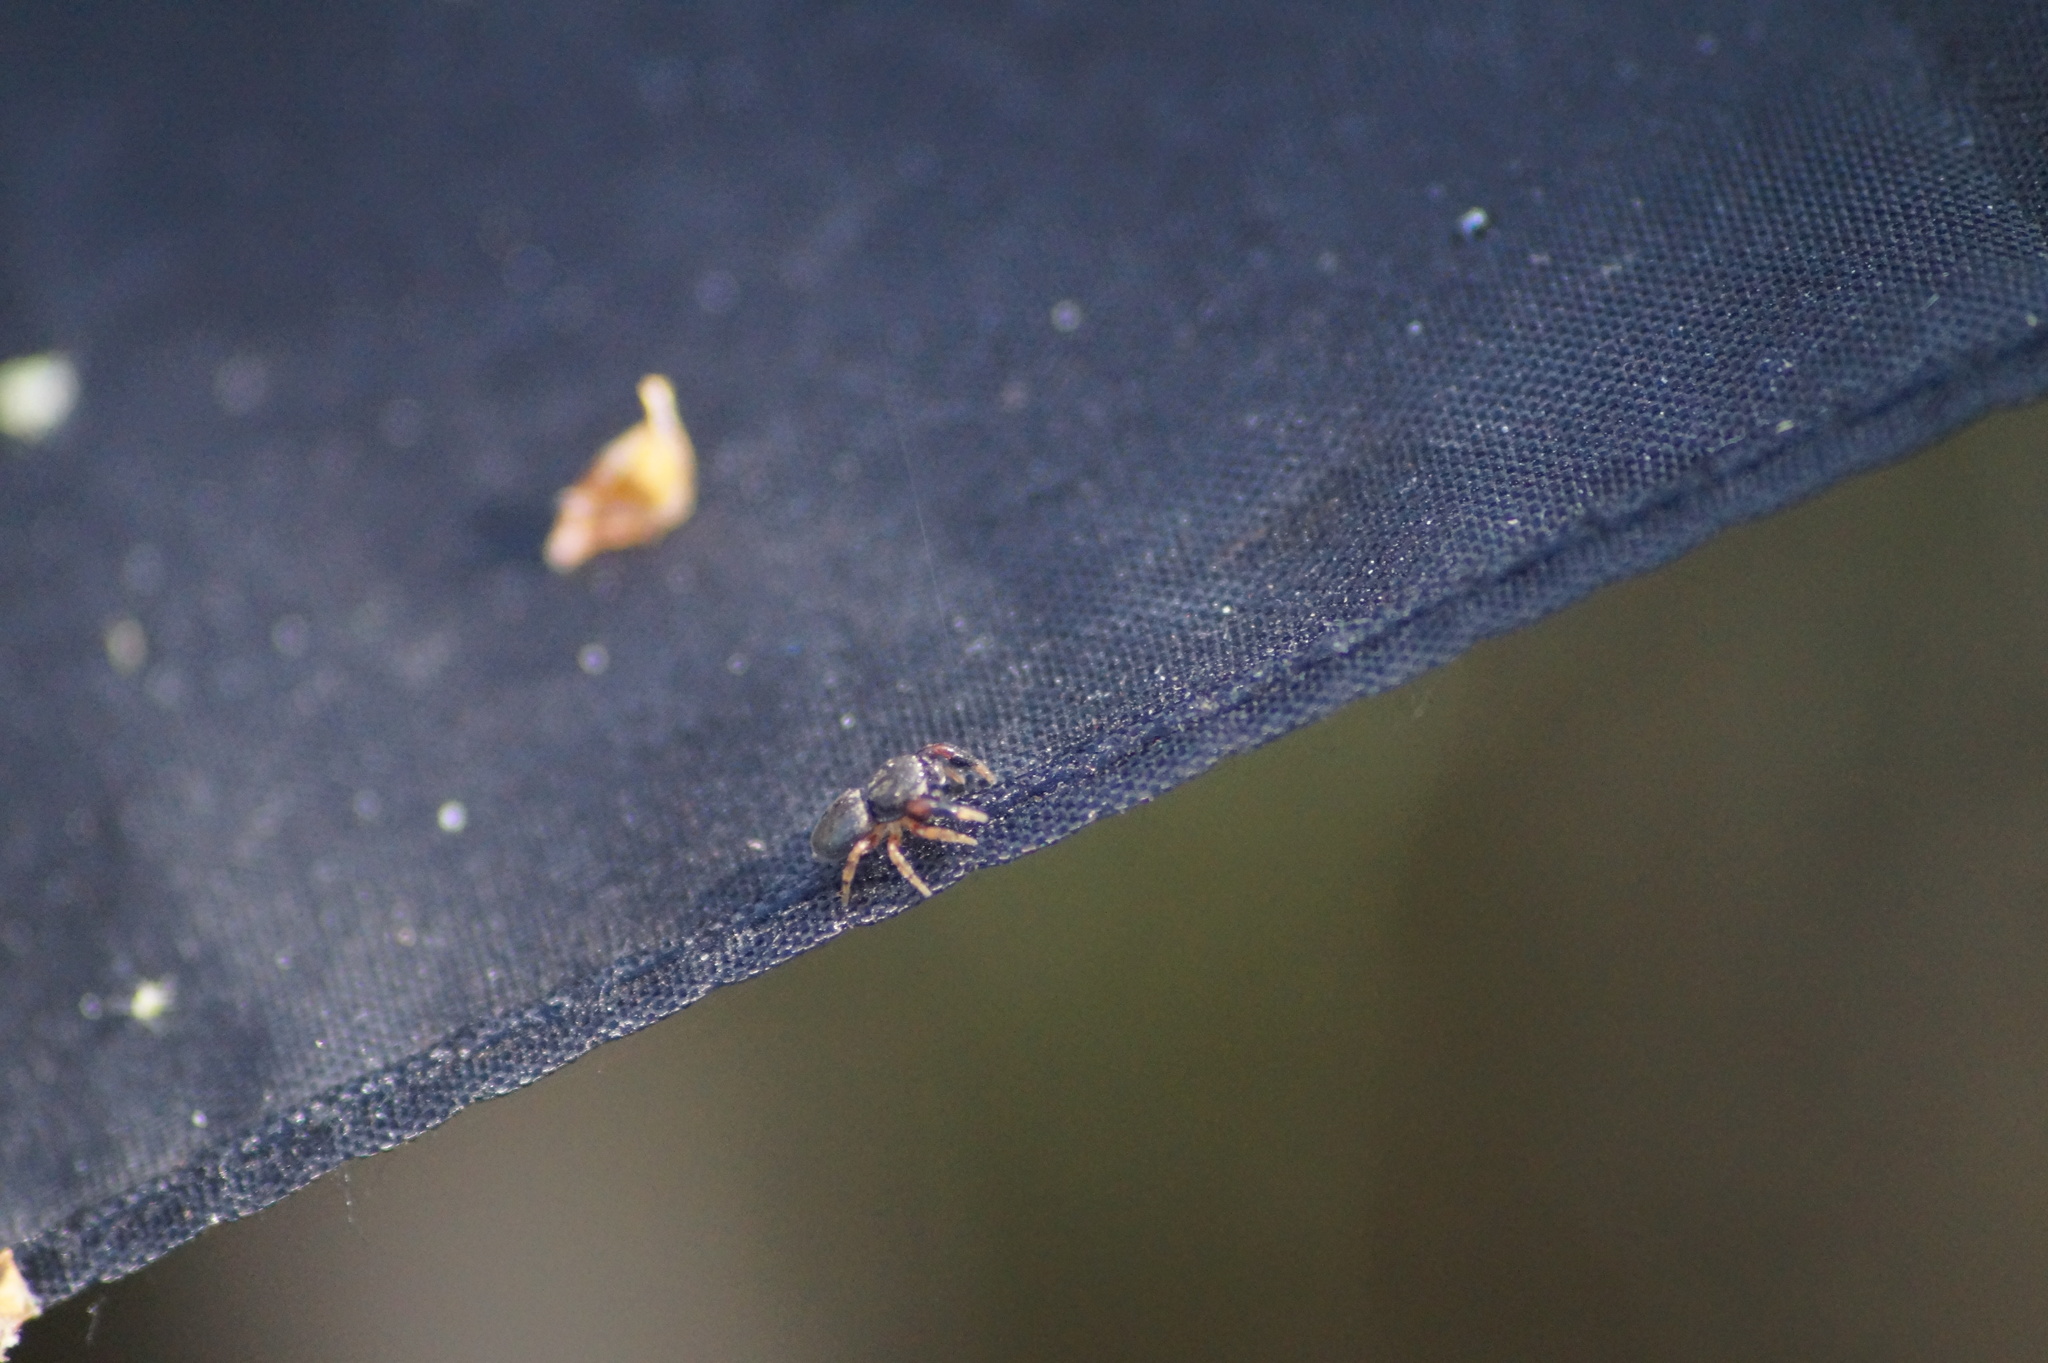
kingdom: Animalia
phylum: Arthropoda
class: Arachnida
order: Araneae
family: Salticidae
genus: Ballus
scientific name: Ballus chalybeius
